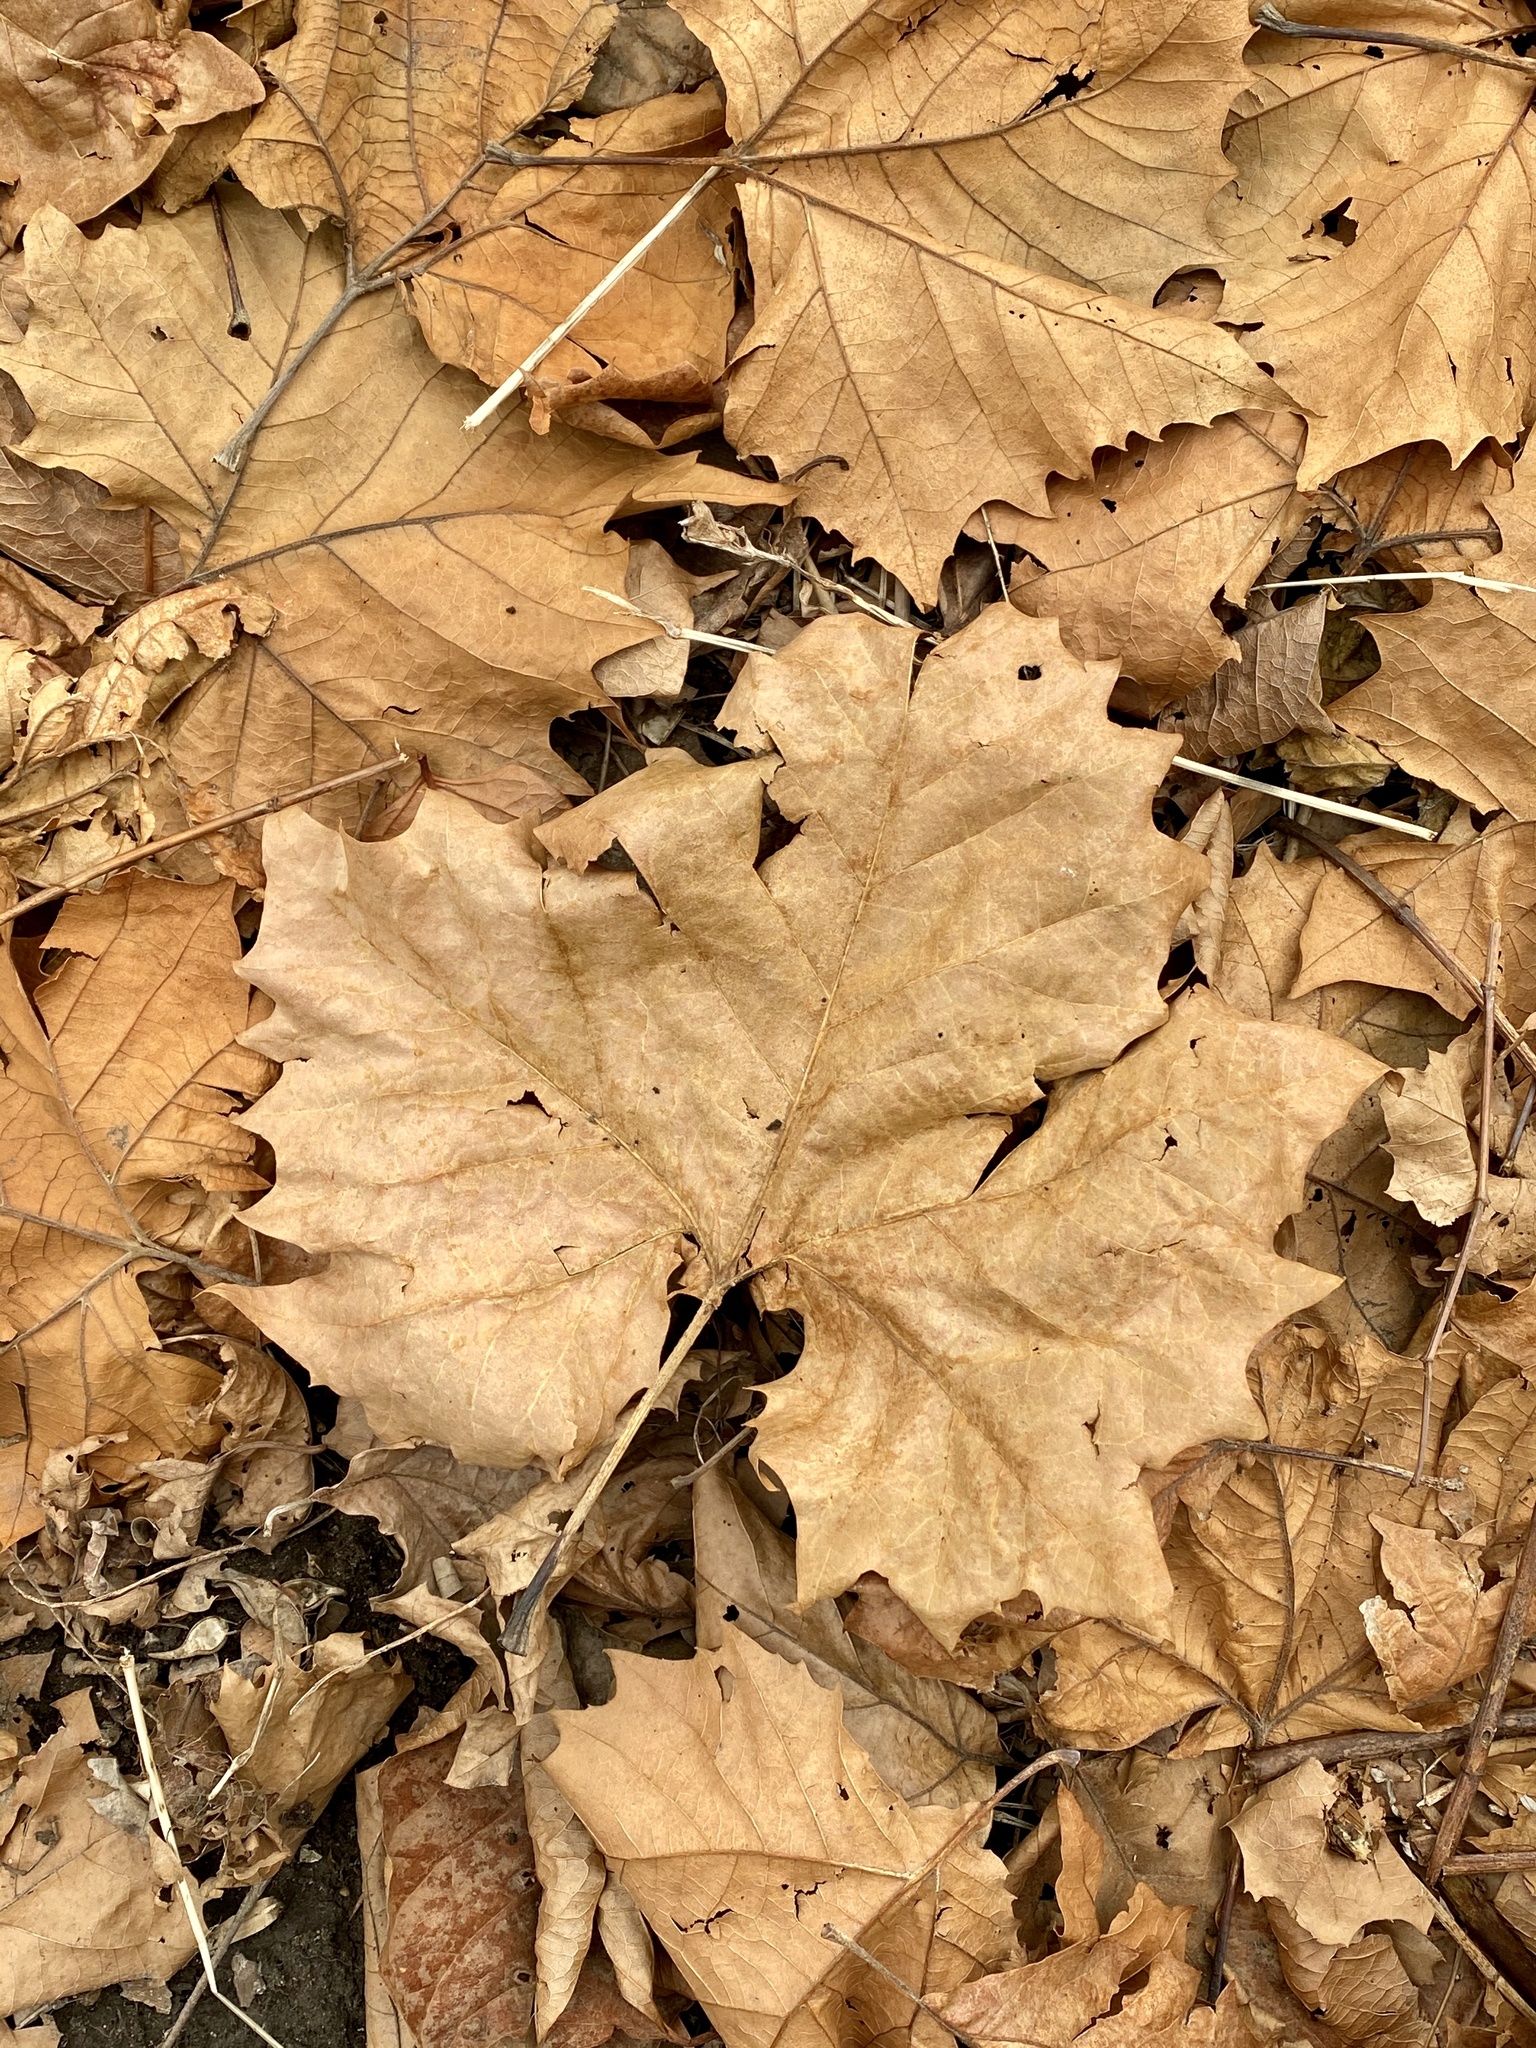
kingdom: Plantae
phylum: Tracheophyta
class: Magnoliopsida
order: Proteales
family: Platanaceae
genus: Platanus
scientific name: Platanus occidentalis
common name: American sycamore
